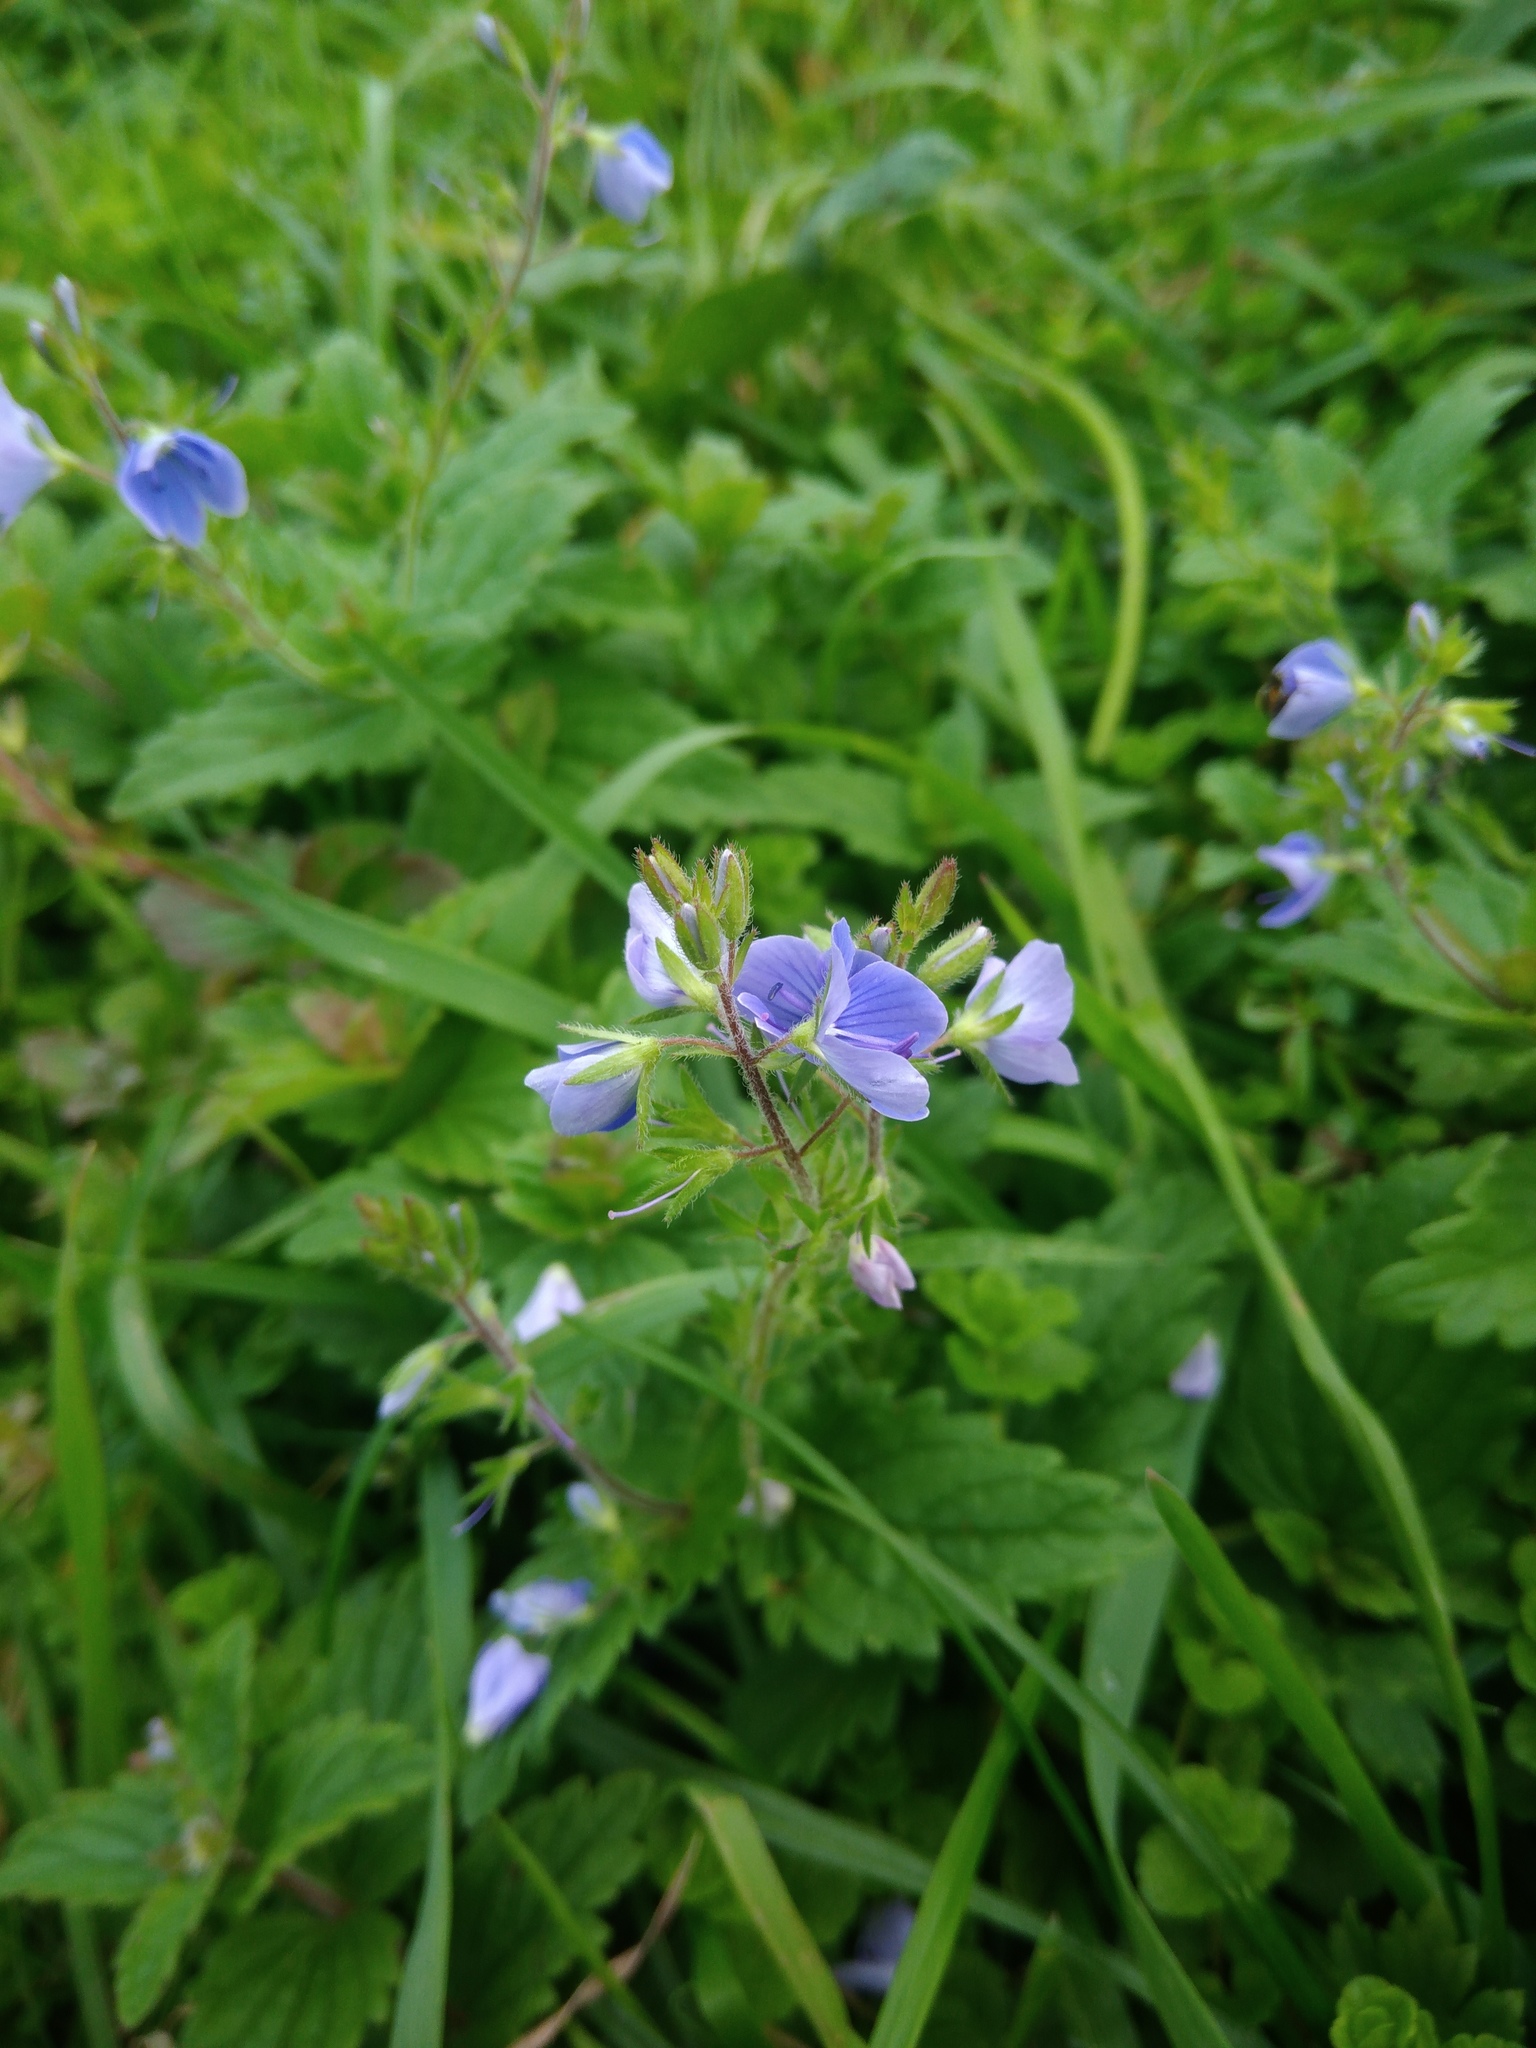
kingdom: Plantae
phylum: Tracheophyta
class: Magnoliopsida
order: Lamiales
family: Plantaginaceae
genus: Veronica
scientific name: Veronica chamaedrys
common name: Germander speedwell
